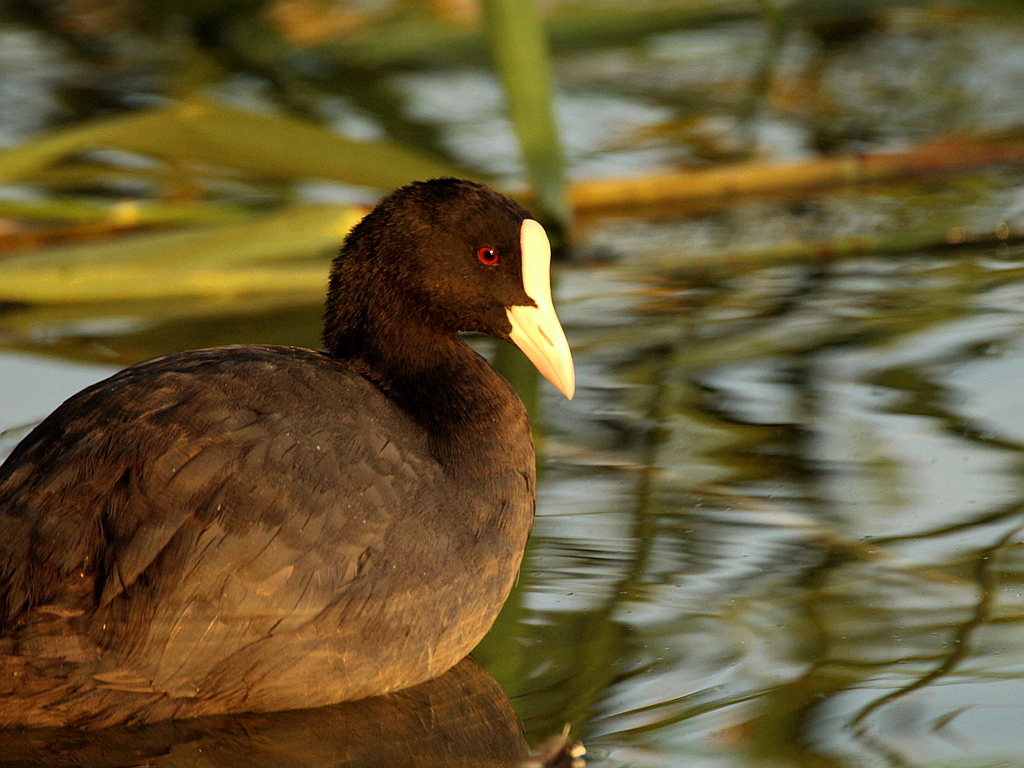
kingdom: Animalia
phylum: Chordata
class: Aves
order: Gruiformes
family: Rallidae
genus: Fulica
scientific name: Fulica atra
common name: Eurasian coot
